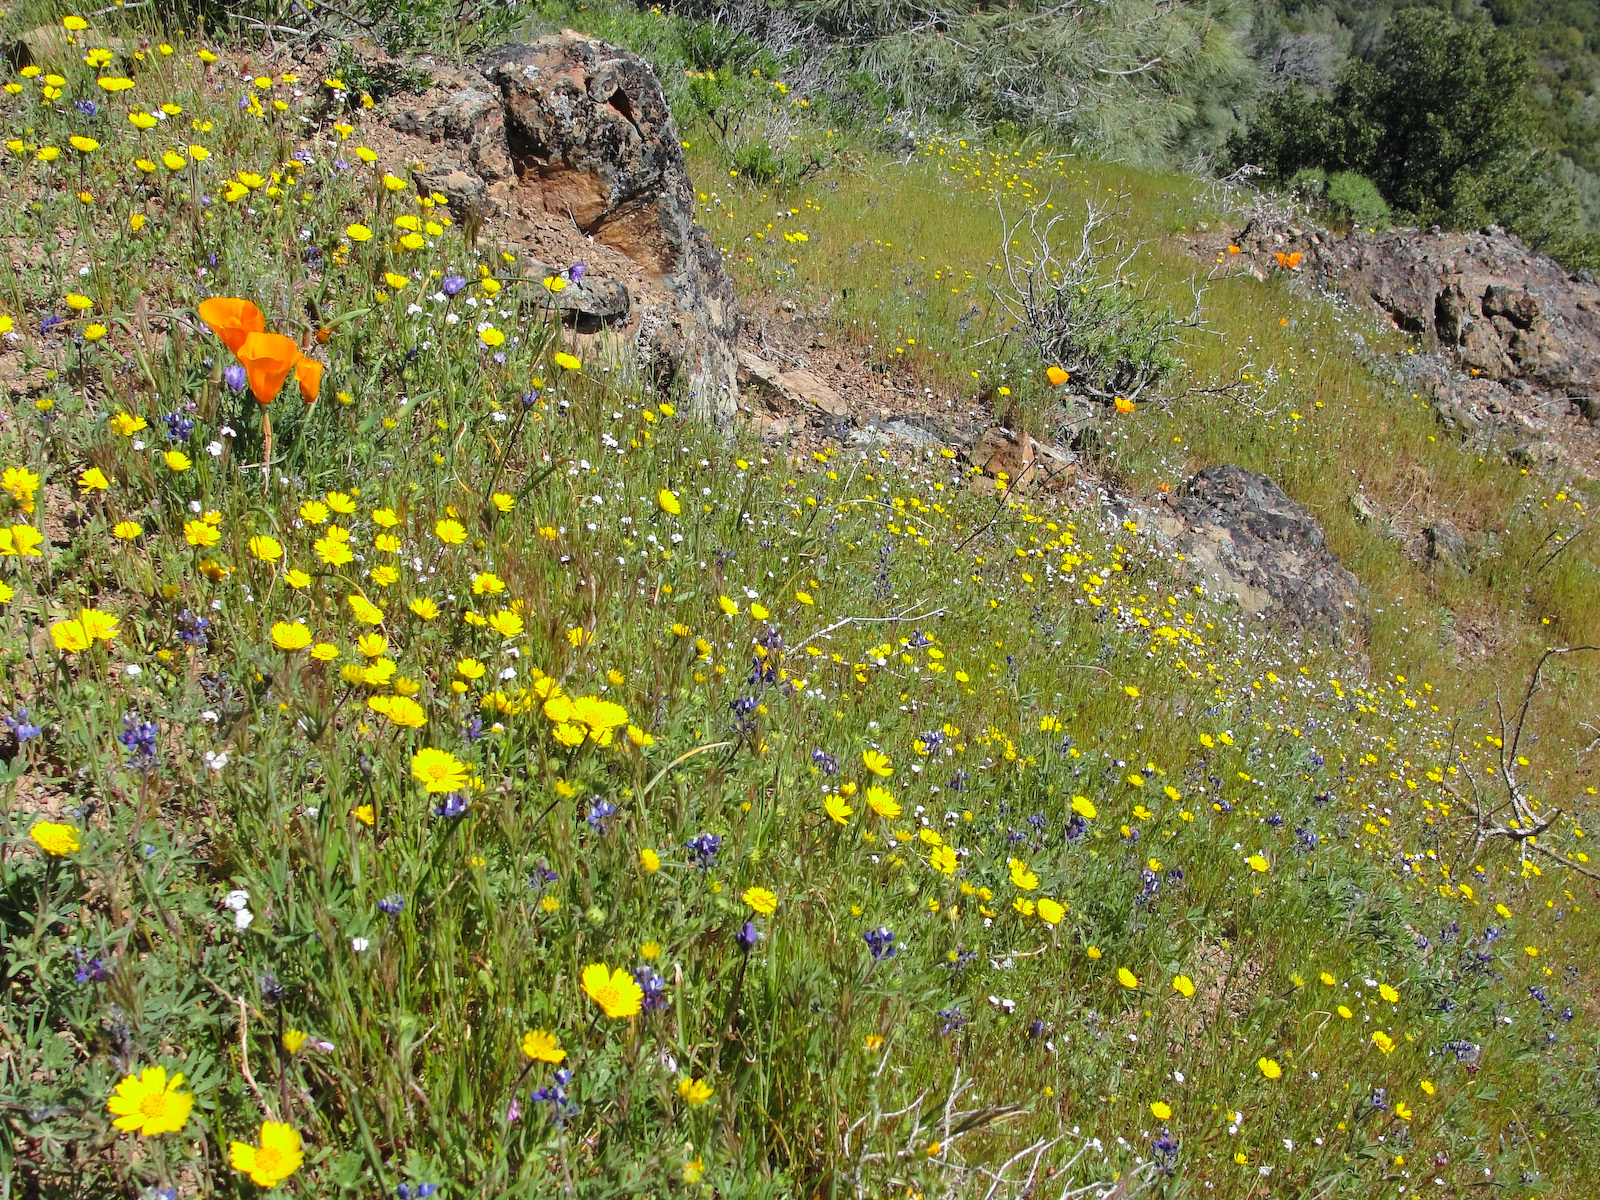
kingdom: Plantae
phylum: Tracheophyta
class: Magnoliopsida
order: Asterales
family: Asteraceae
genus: Layia
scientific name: Layia platyglossa
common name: Tidy-tips
